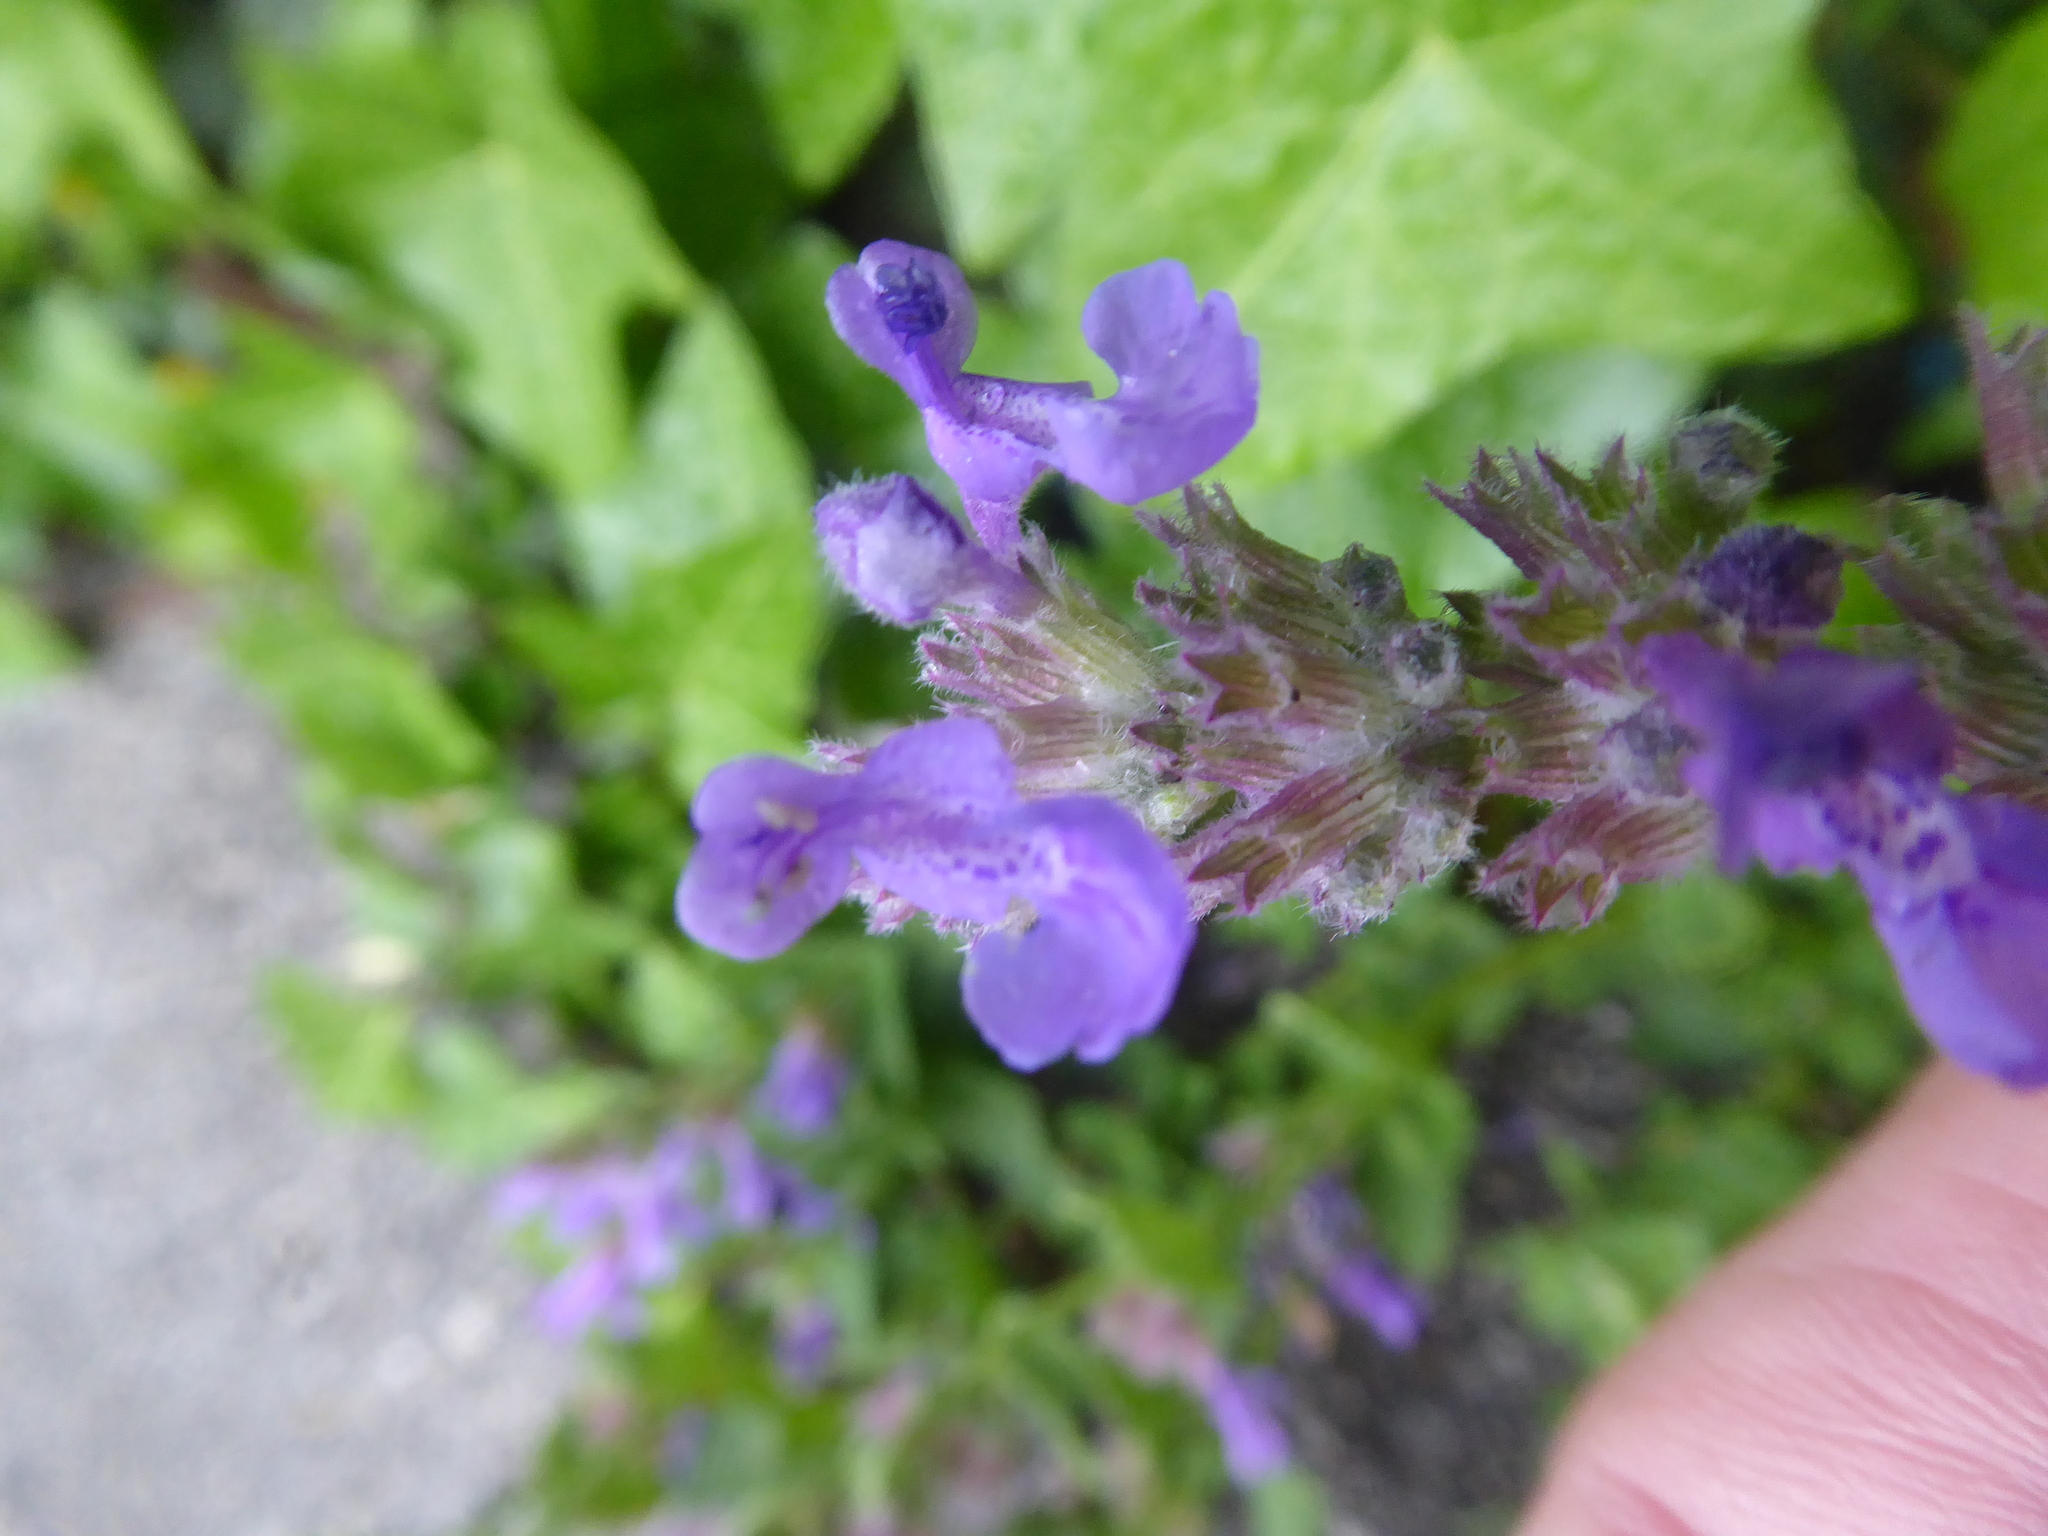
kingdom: Plantae
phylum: Tracheophyta
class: Magnoliopsida
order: Lamiales
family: Lamiaceae
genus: Nepeta
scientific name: Nepeta racemosa
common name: Raceme catnip
